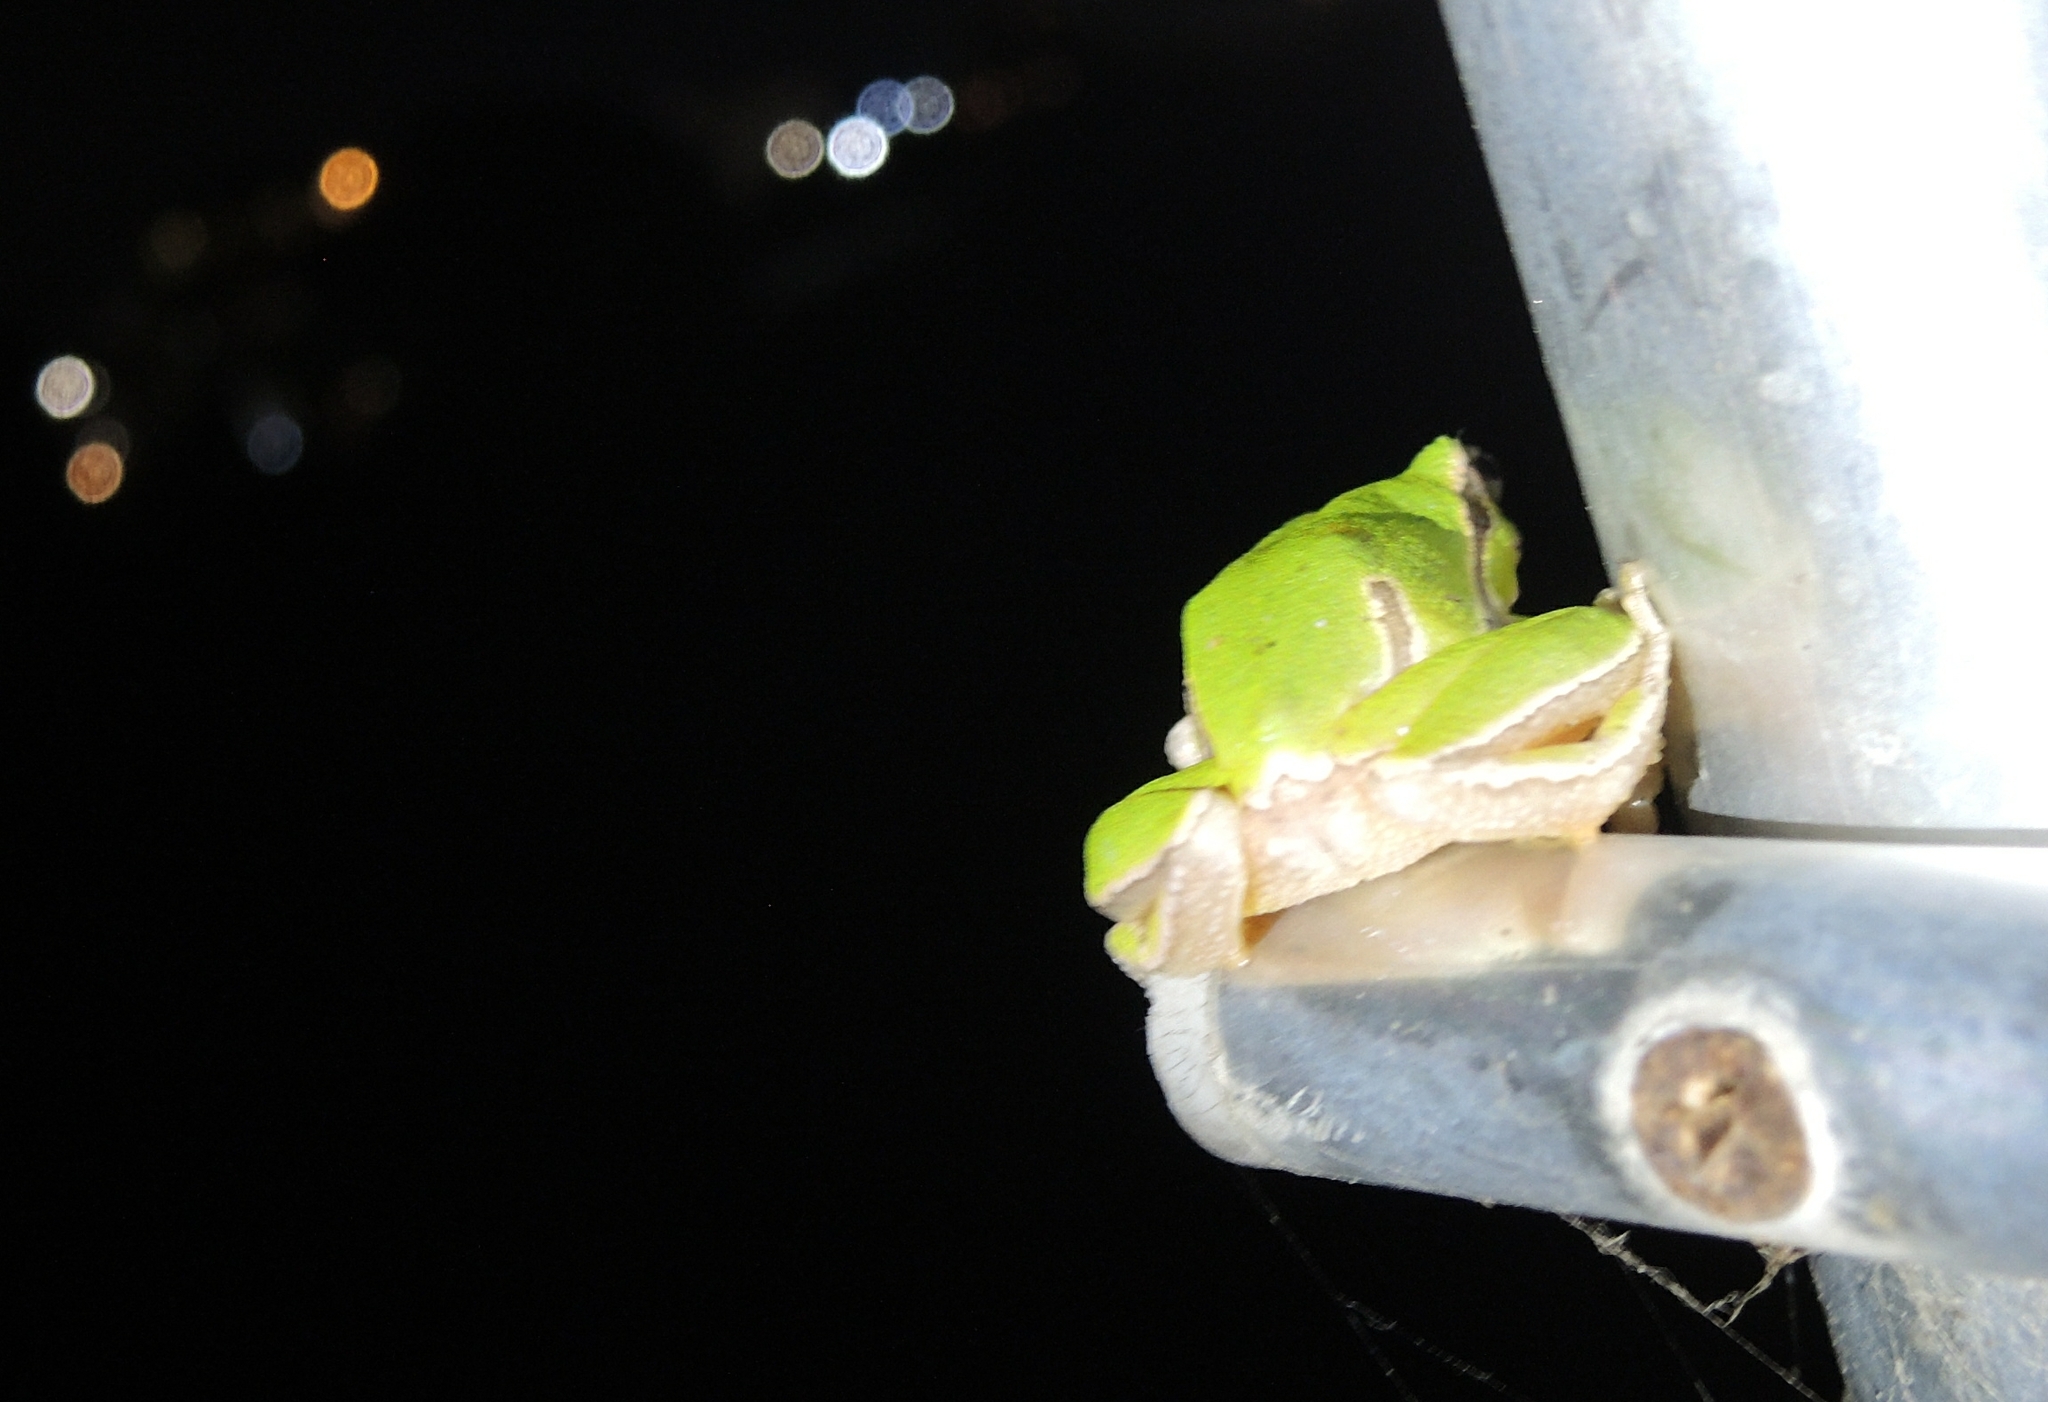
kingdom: Animalia
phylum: Chordata
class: Amphibia
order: Anura
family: Hylidae
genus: Hyla
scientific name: Hyla orientalis
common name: Caucasian treefrog
